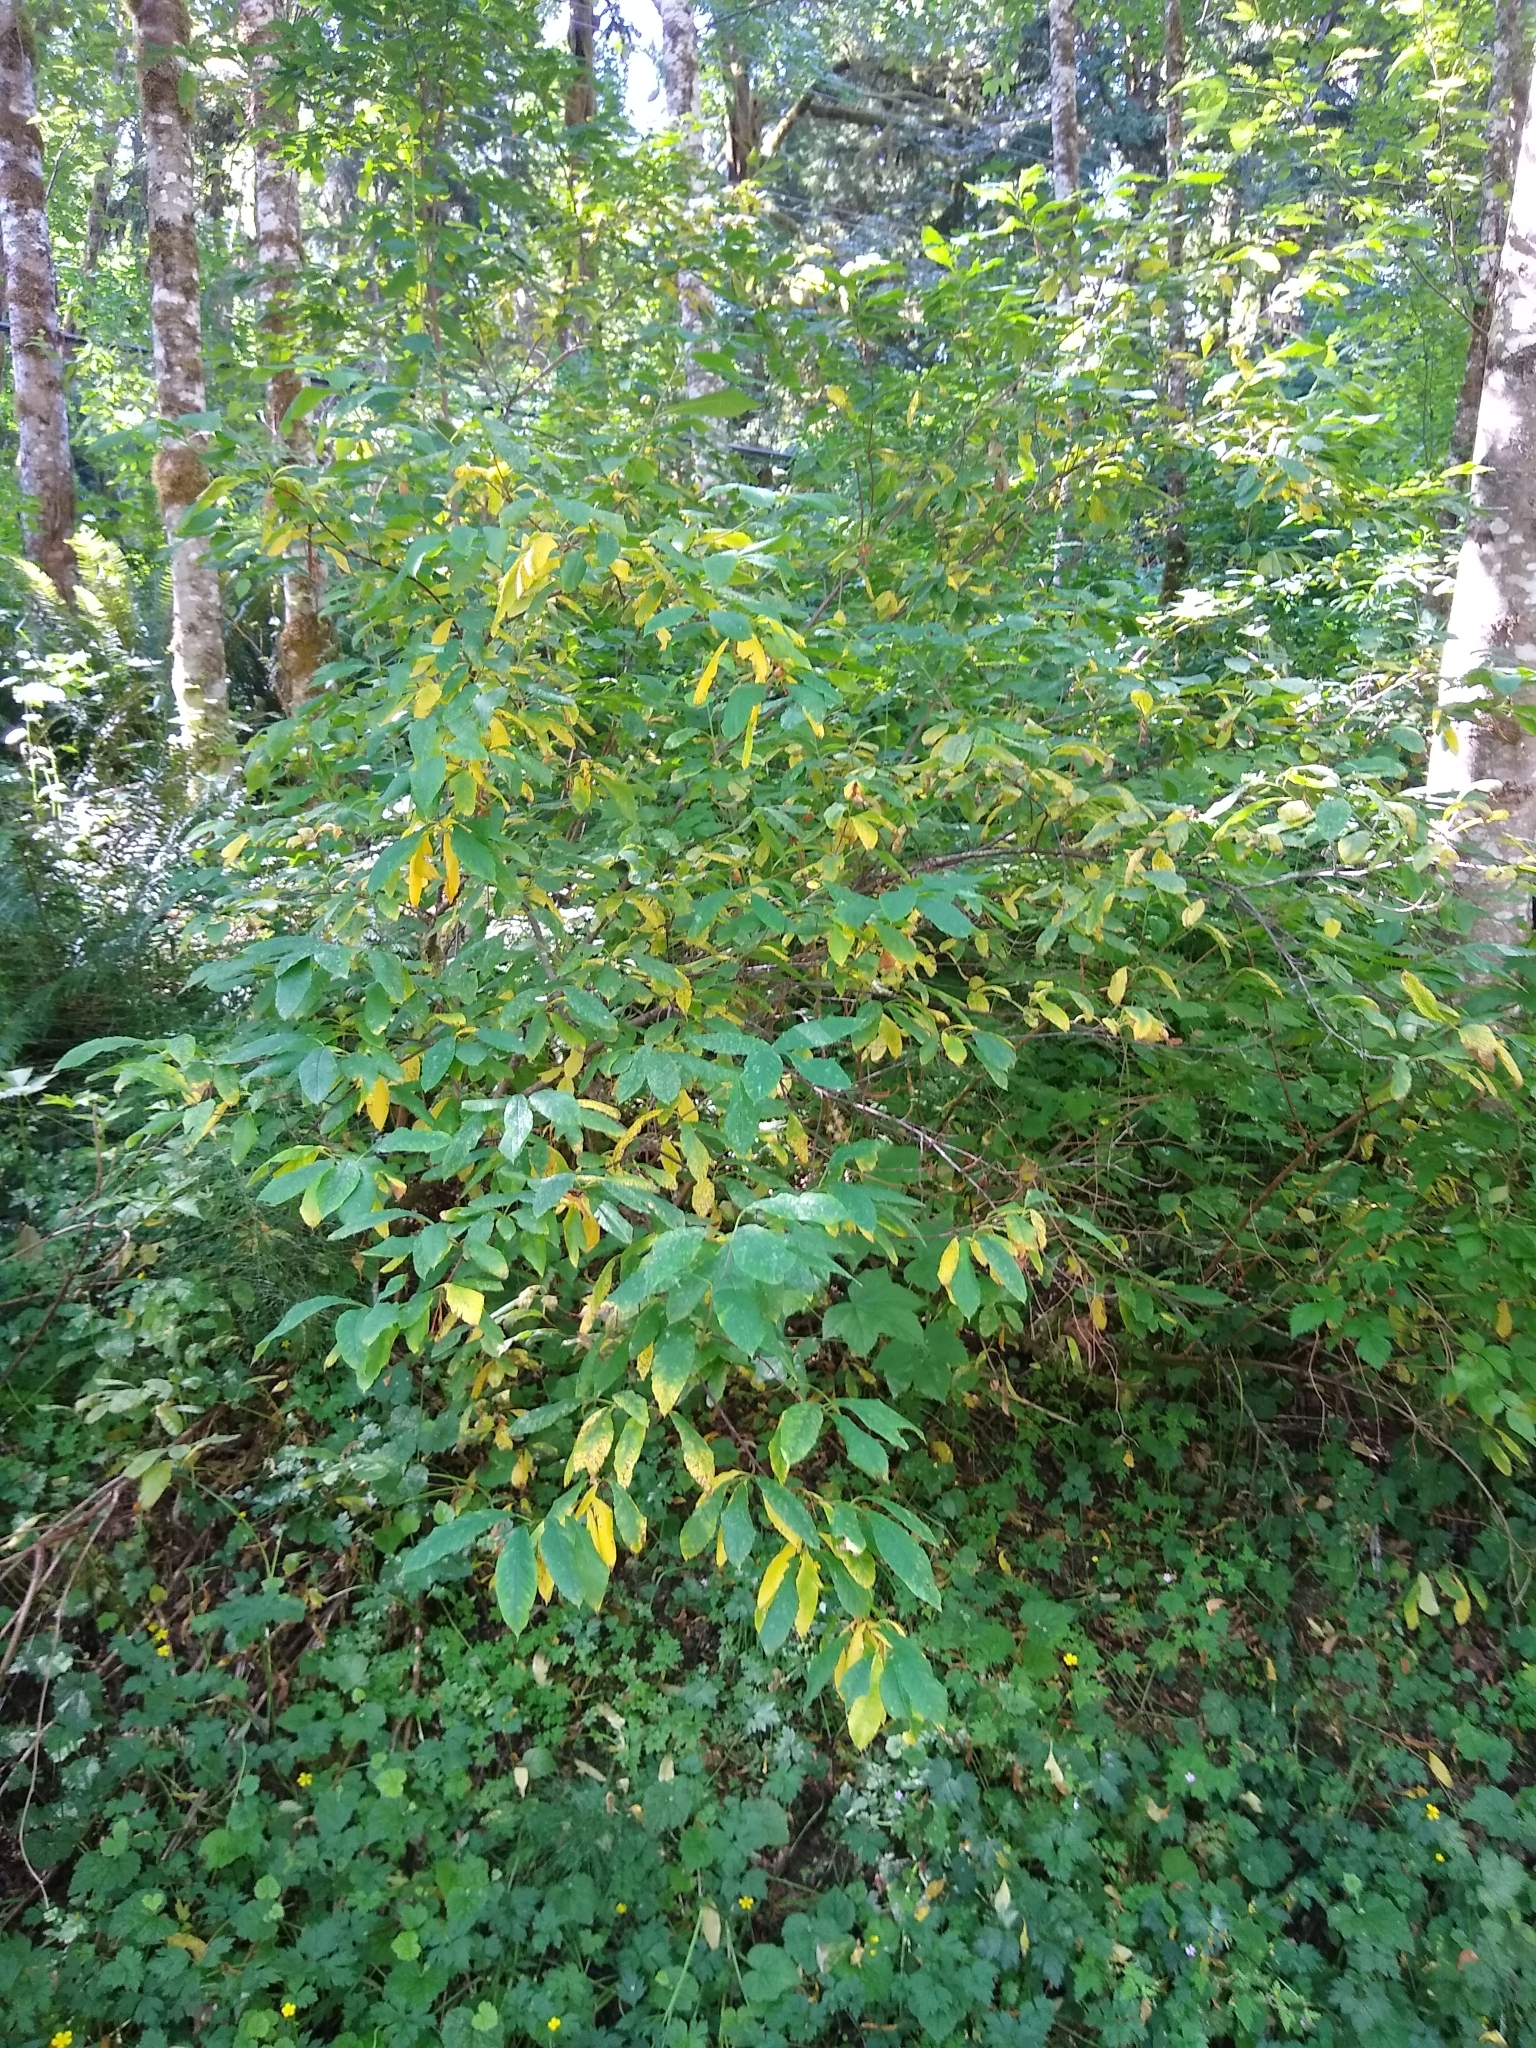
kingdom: Plantae
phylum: Tracheophyta
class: Magnoliopsida
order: Rosales
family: Rosaceae
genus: Oemleria
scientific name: Oemleria cerasiformis
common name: Osoberry
